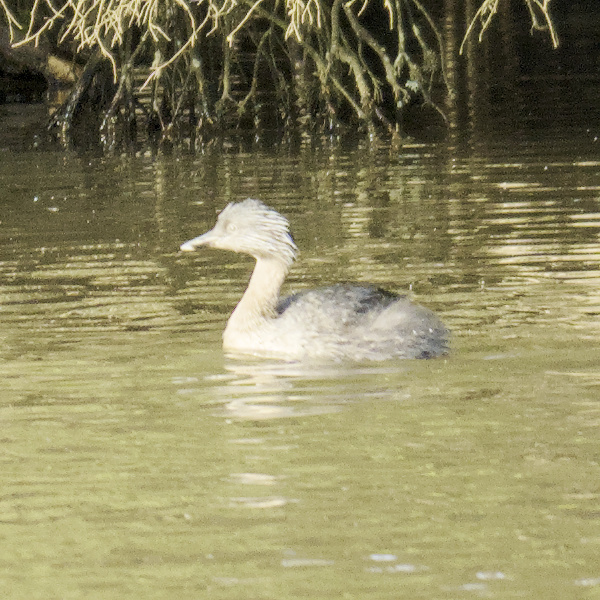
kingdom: Animalia
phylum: Chordata
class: Aves
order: Podicipediformes
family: Podicipedidae
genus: Poliocephalus
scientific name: Poliocephalus poliocephalus
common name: Hoary-headed grebe
